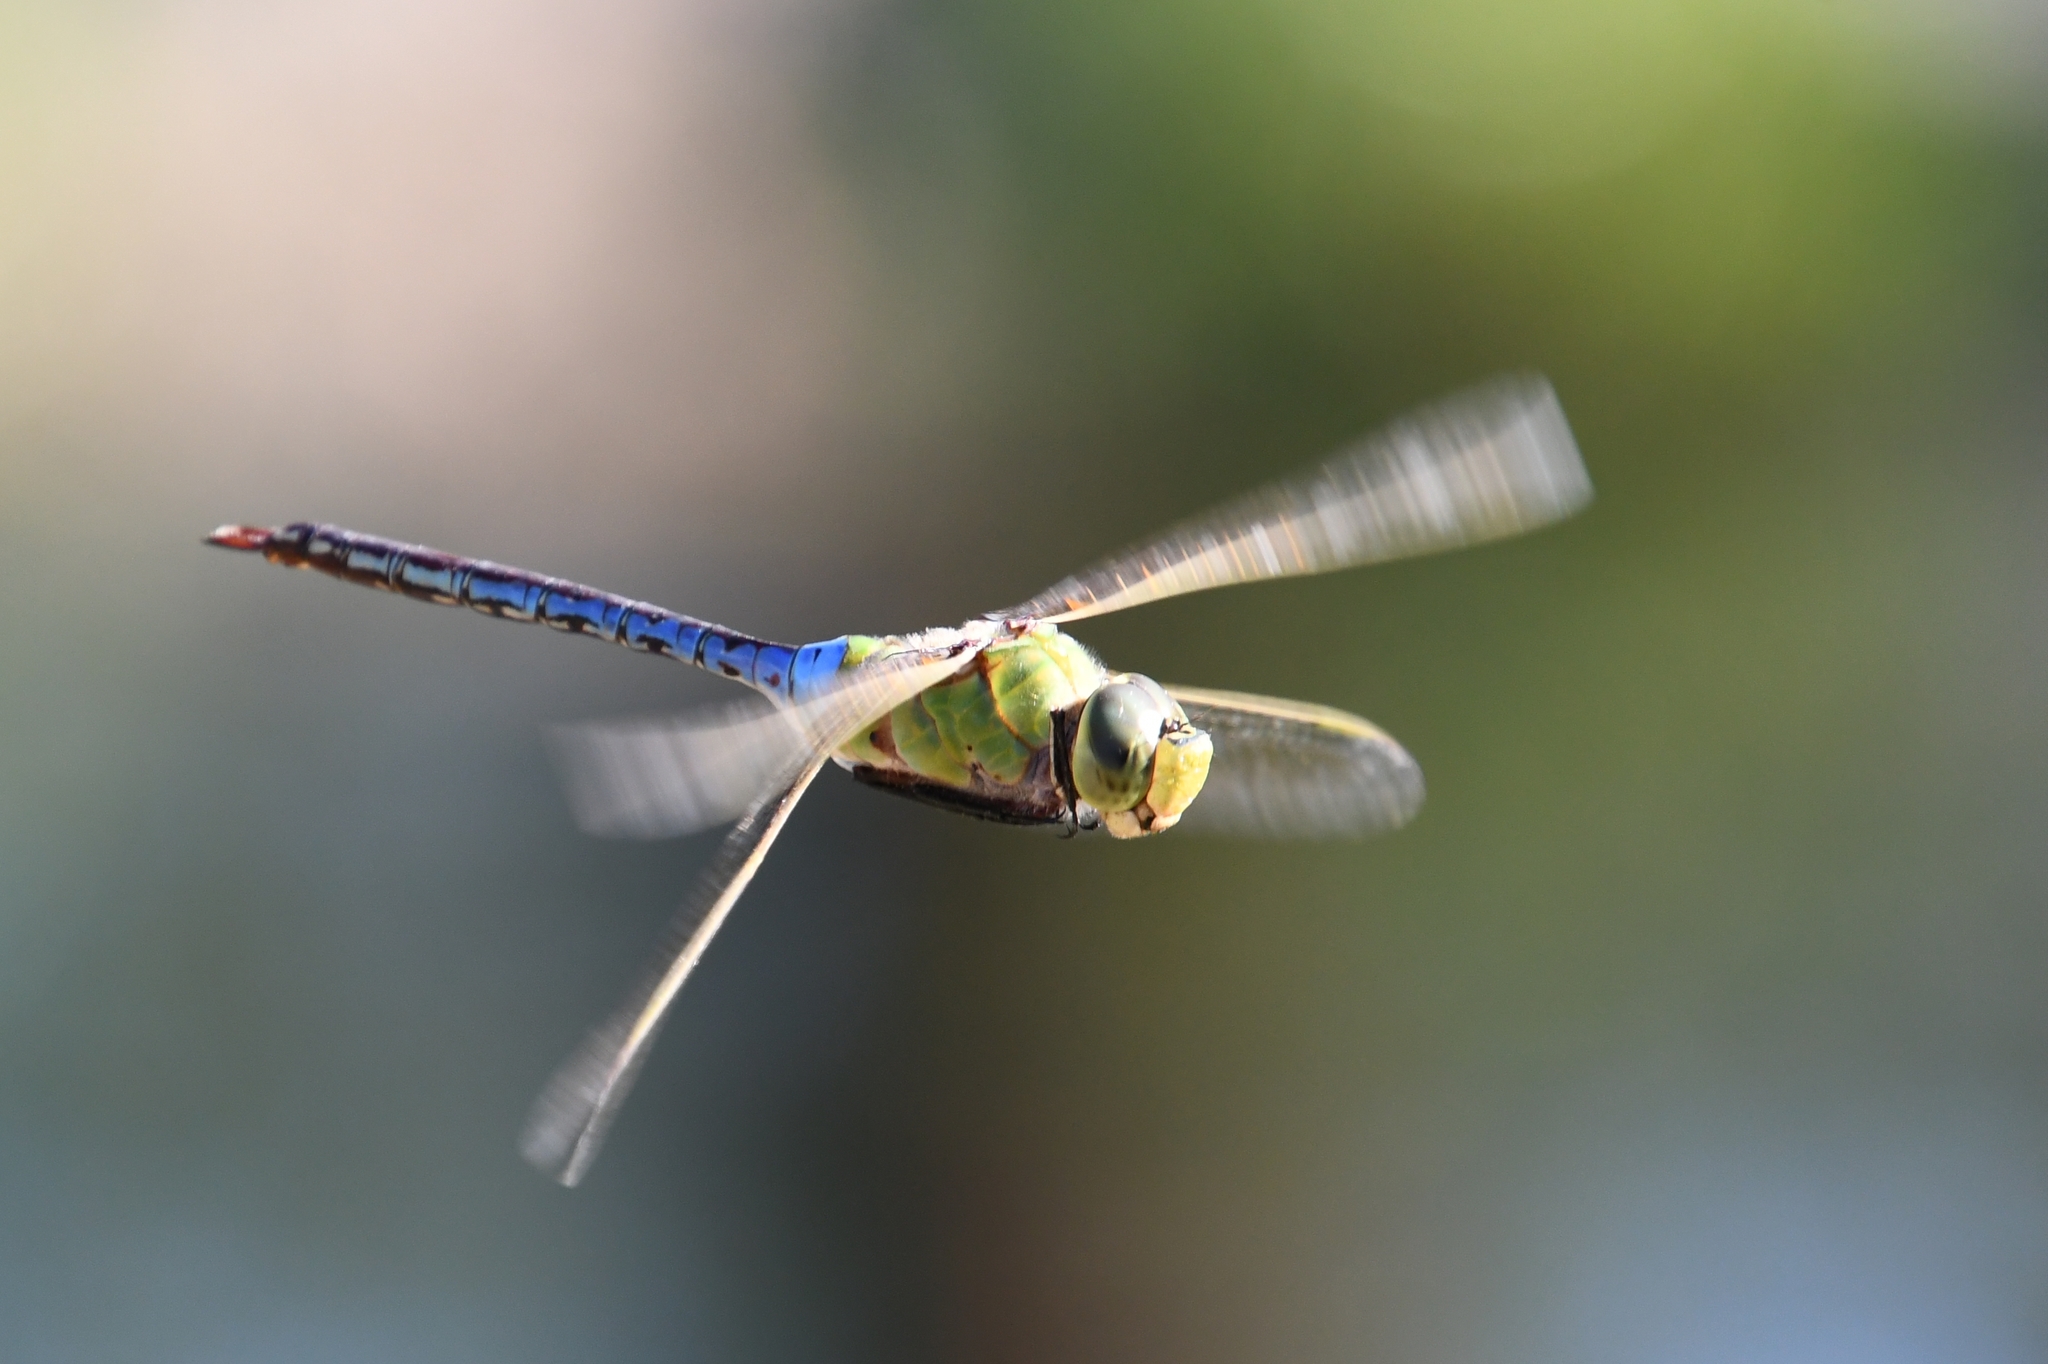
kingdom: Animalia
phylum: Arthropoda
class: Insecta
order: Odonata
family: Aeshnidae
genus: Anax
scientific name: Anax junius
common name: Common green darner
